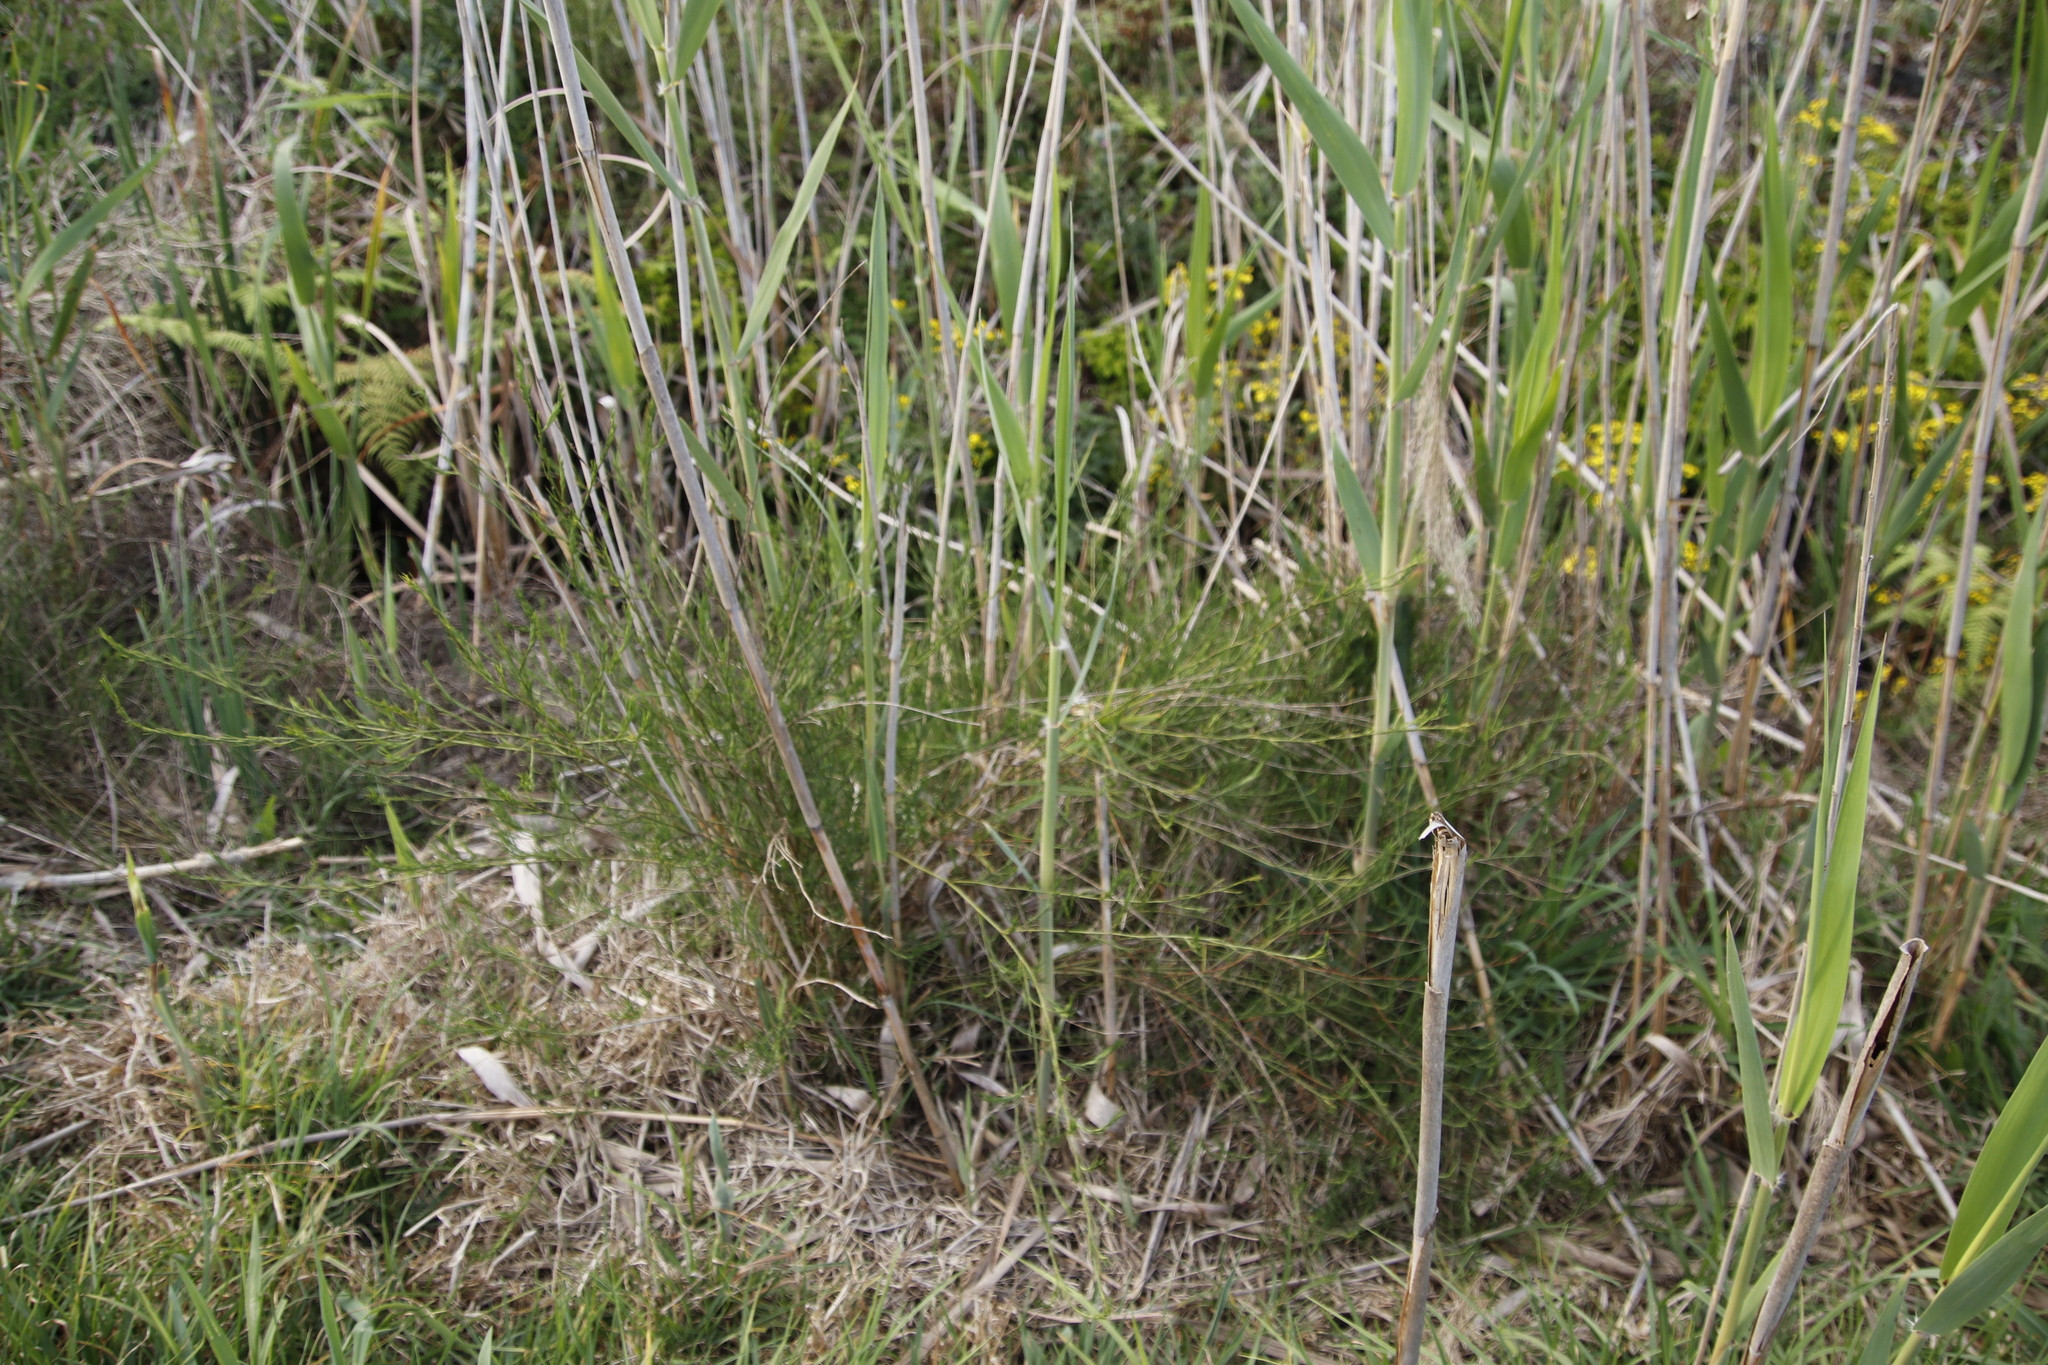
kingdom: Plantae
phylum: Tracheophyta
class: Magnoliopsida
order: Fabales
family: Fabaceae
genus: Psoralea
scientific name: Psoralea fascicularis
